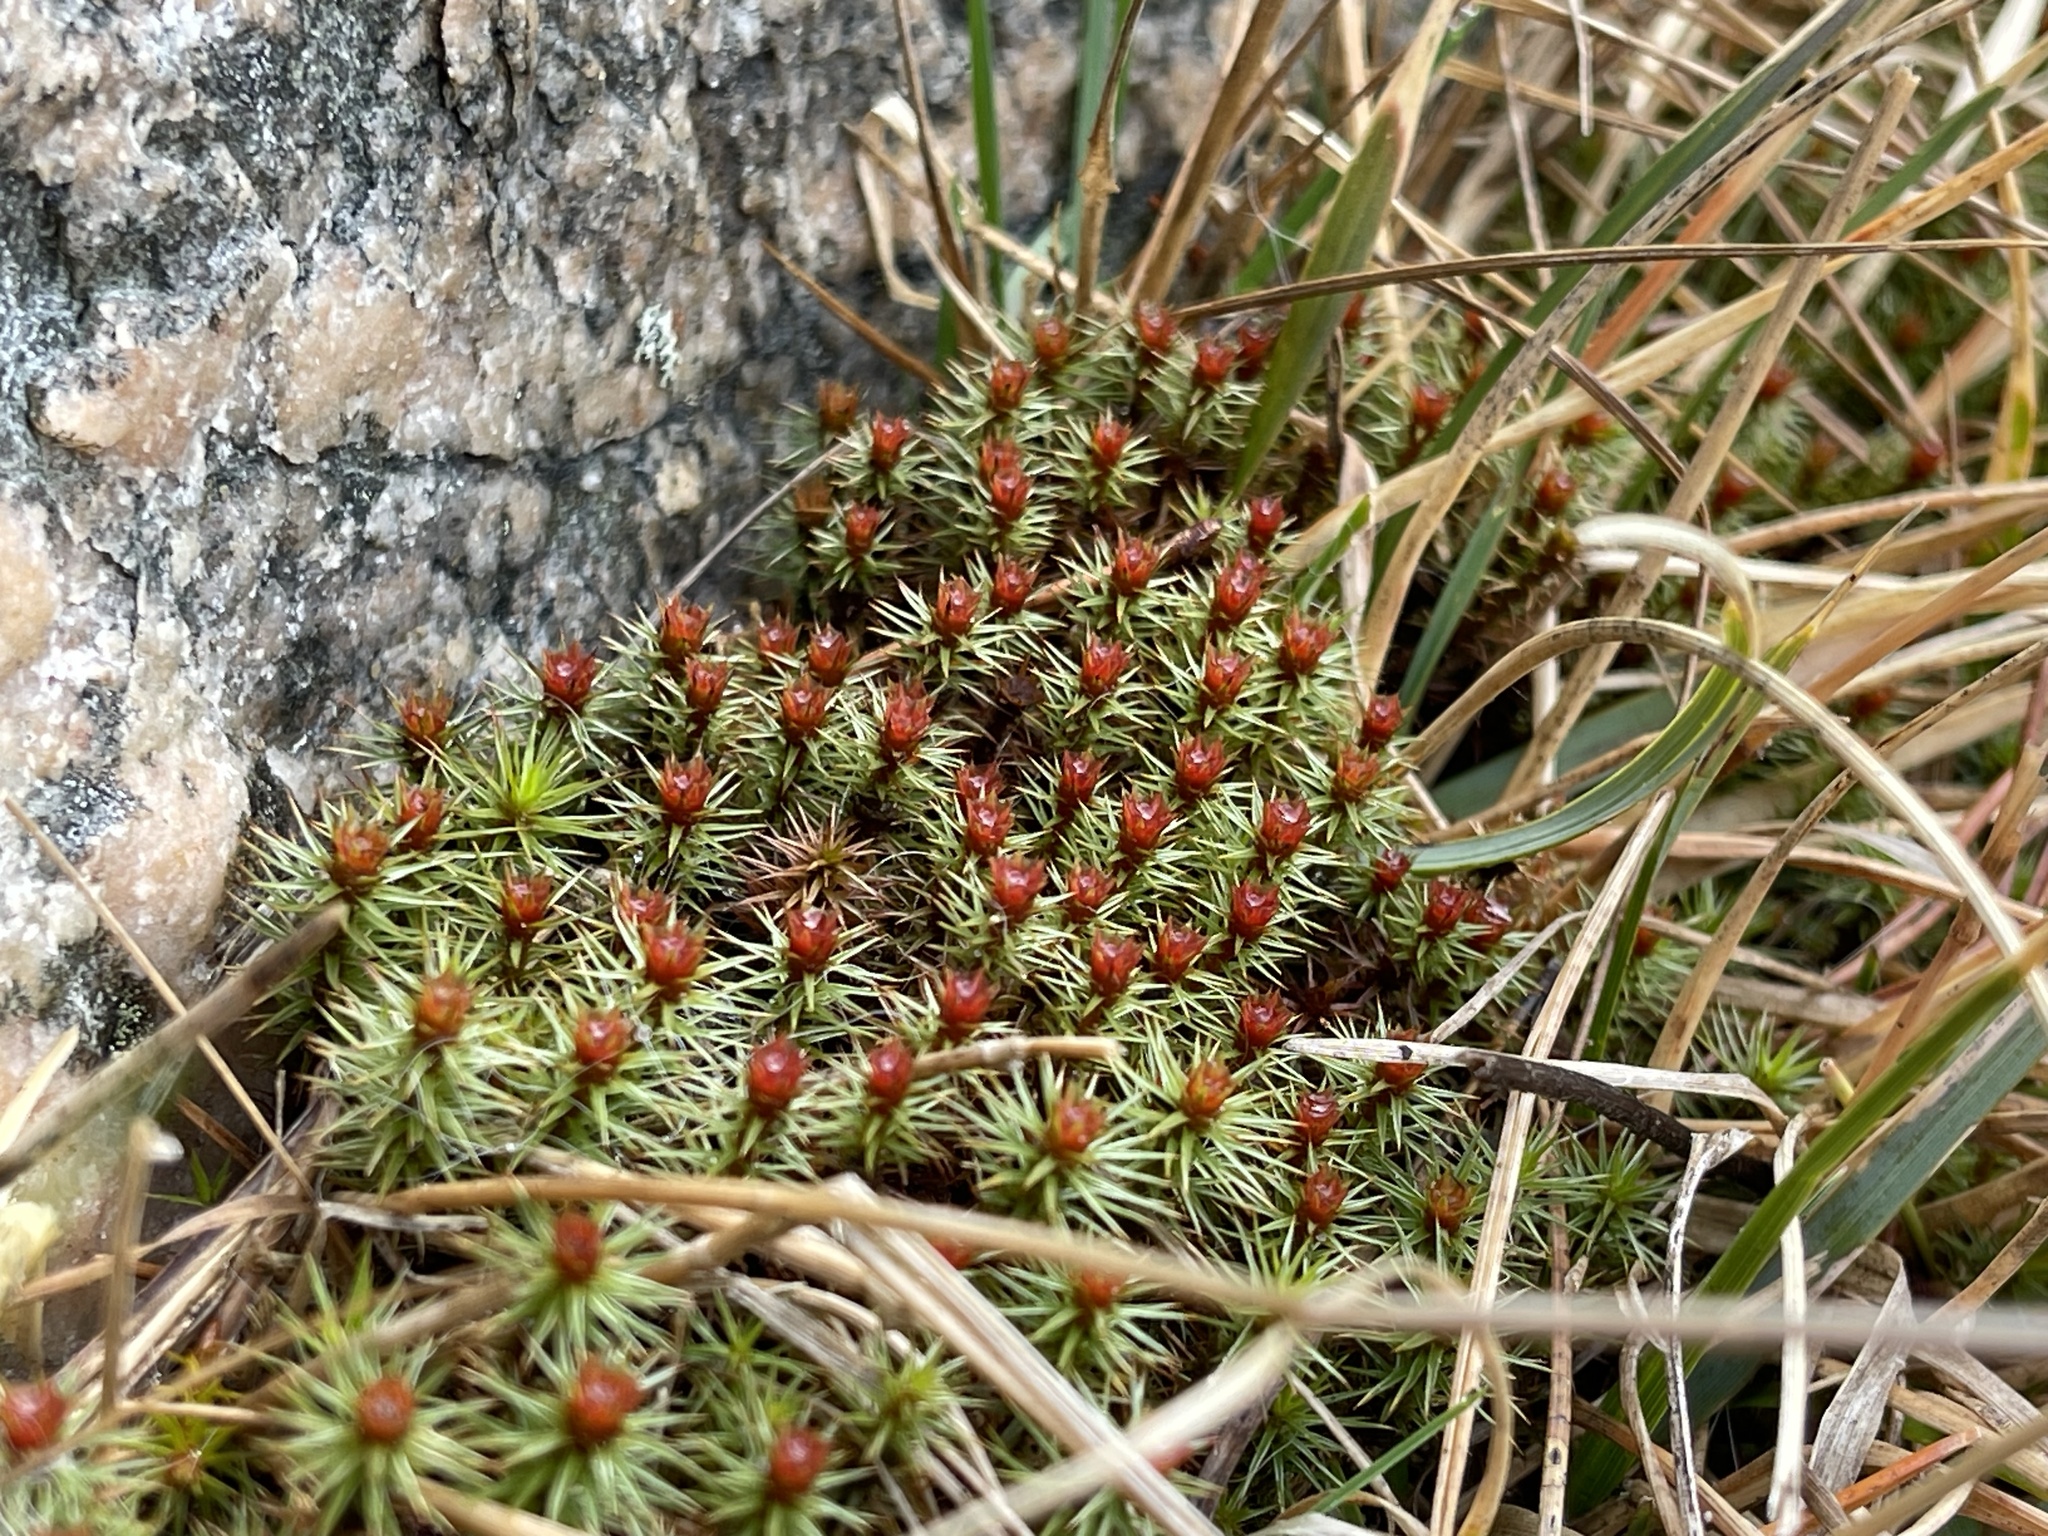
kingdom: Plantae
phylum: Bryophyta
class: Polytrichopsida
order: Polytrichales
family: Polytrichaceae
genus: Polytrichum
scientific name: Polytrichum juniperinum
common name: Juniper haircap moss
